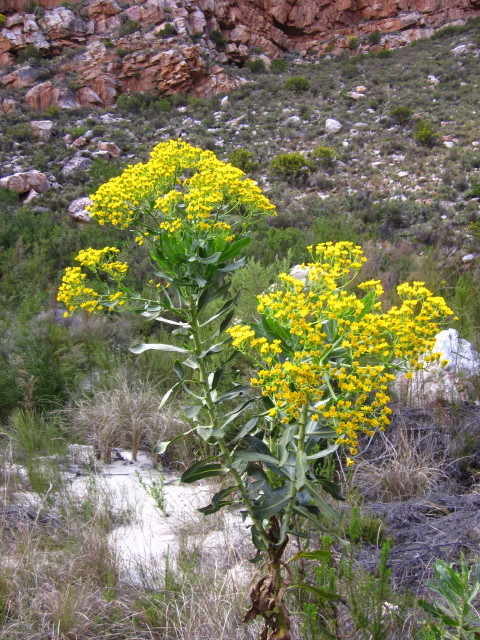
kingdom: Plantae
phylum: Tracheophyta
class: Magnoliopsida
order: Asterales
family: Asteraceae
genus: Othonna
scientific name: Othonna parviflora
